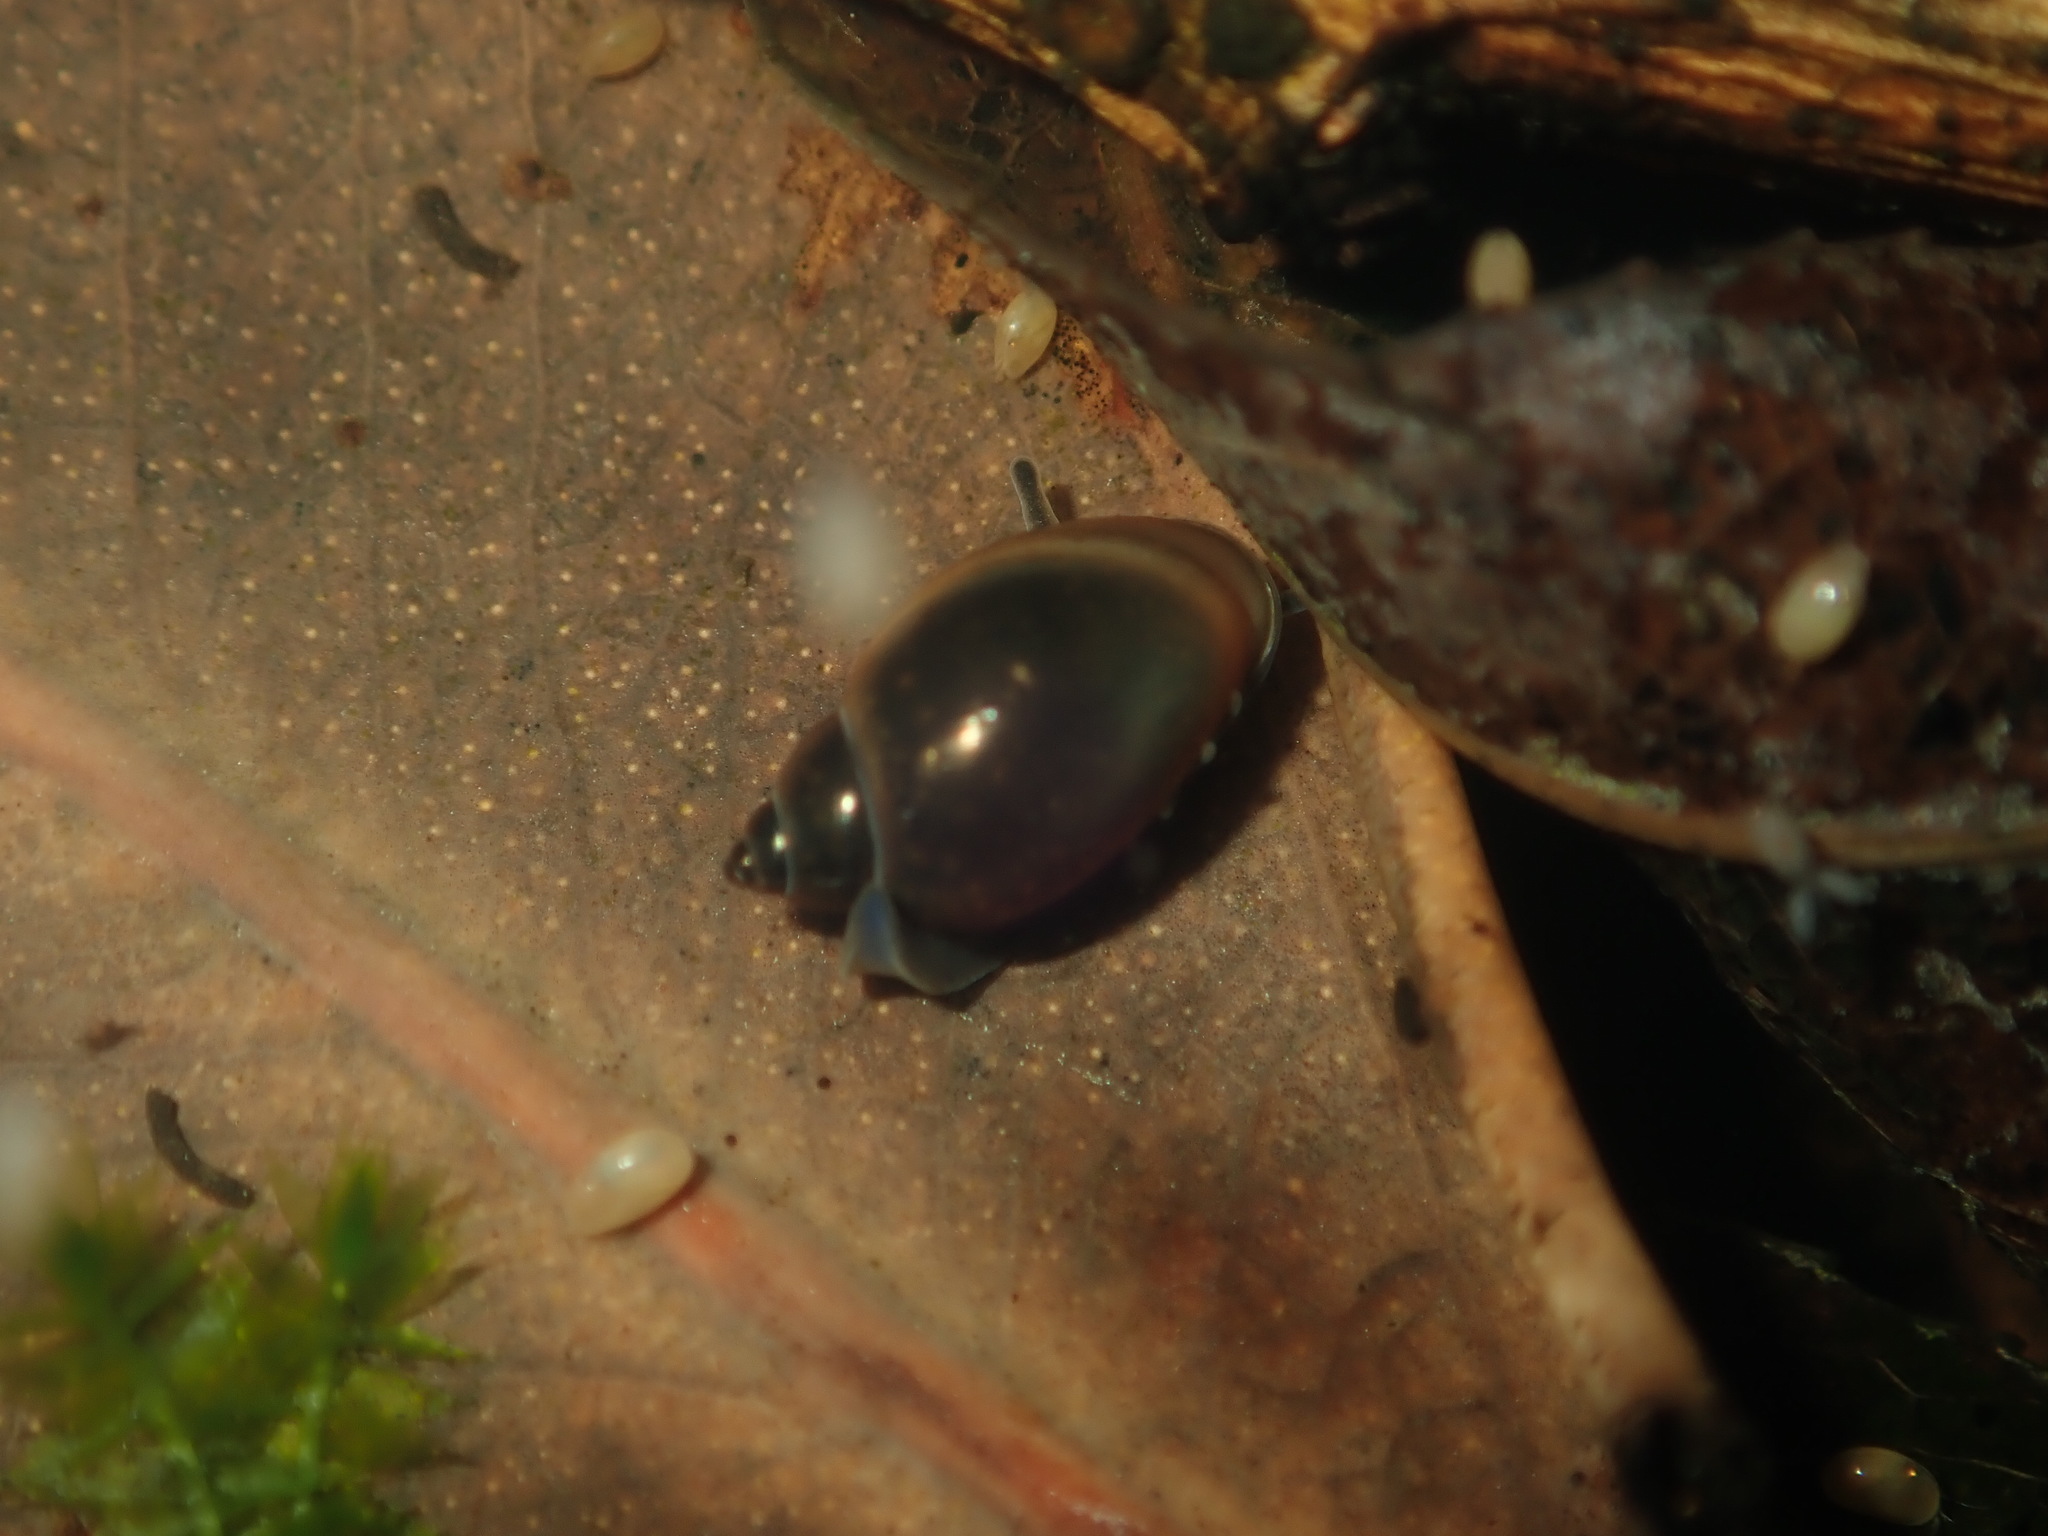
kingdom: Animalia
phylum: Mollusca
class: Gastropoda
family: Physidae
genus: Physella
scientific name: Physella acuta
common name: European physa
